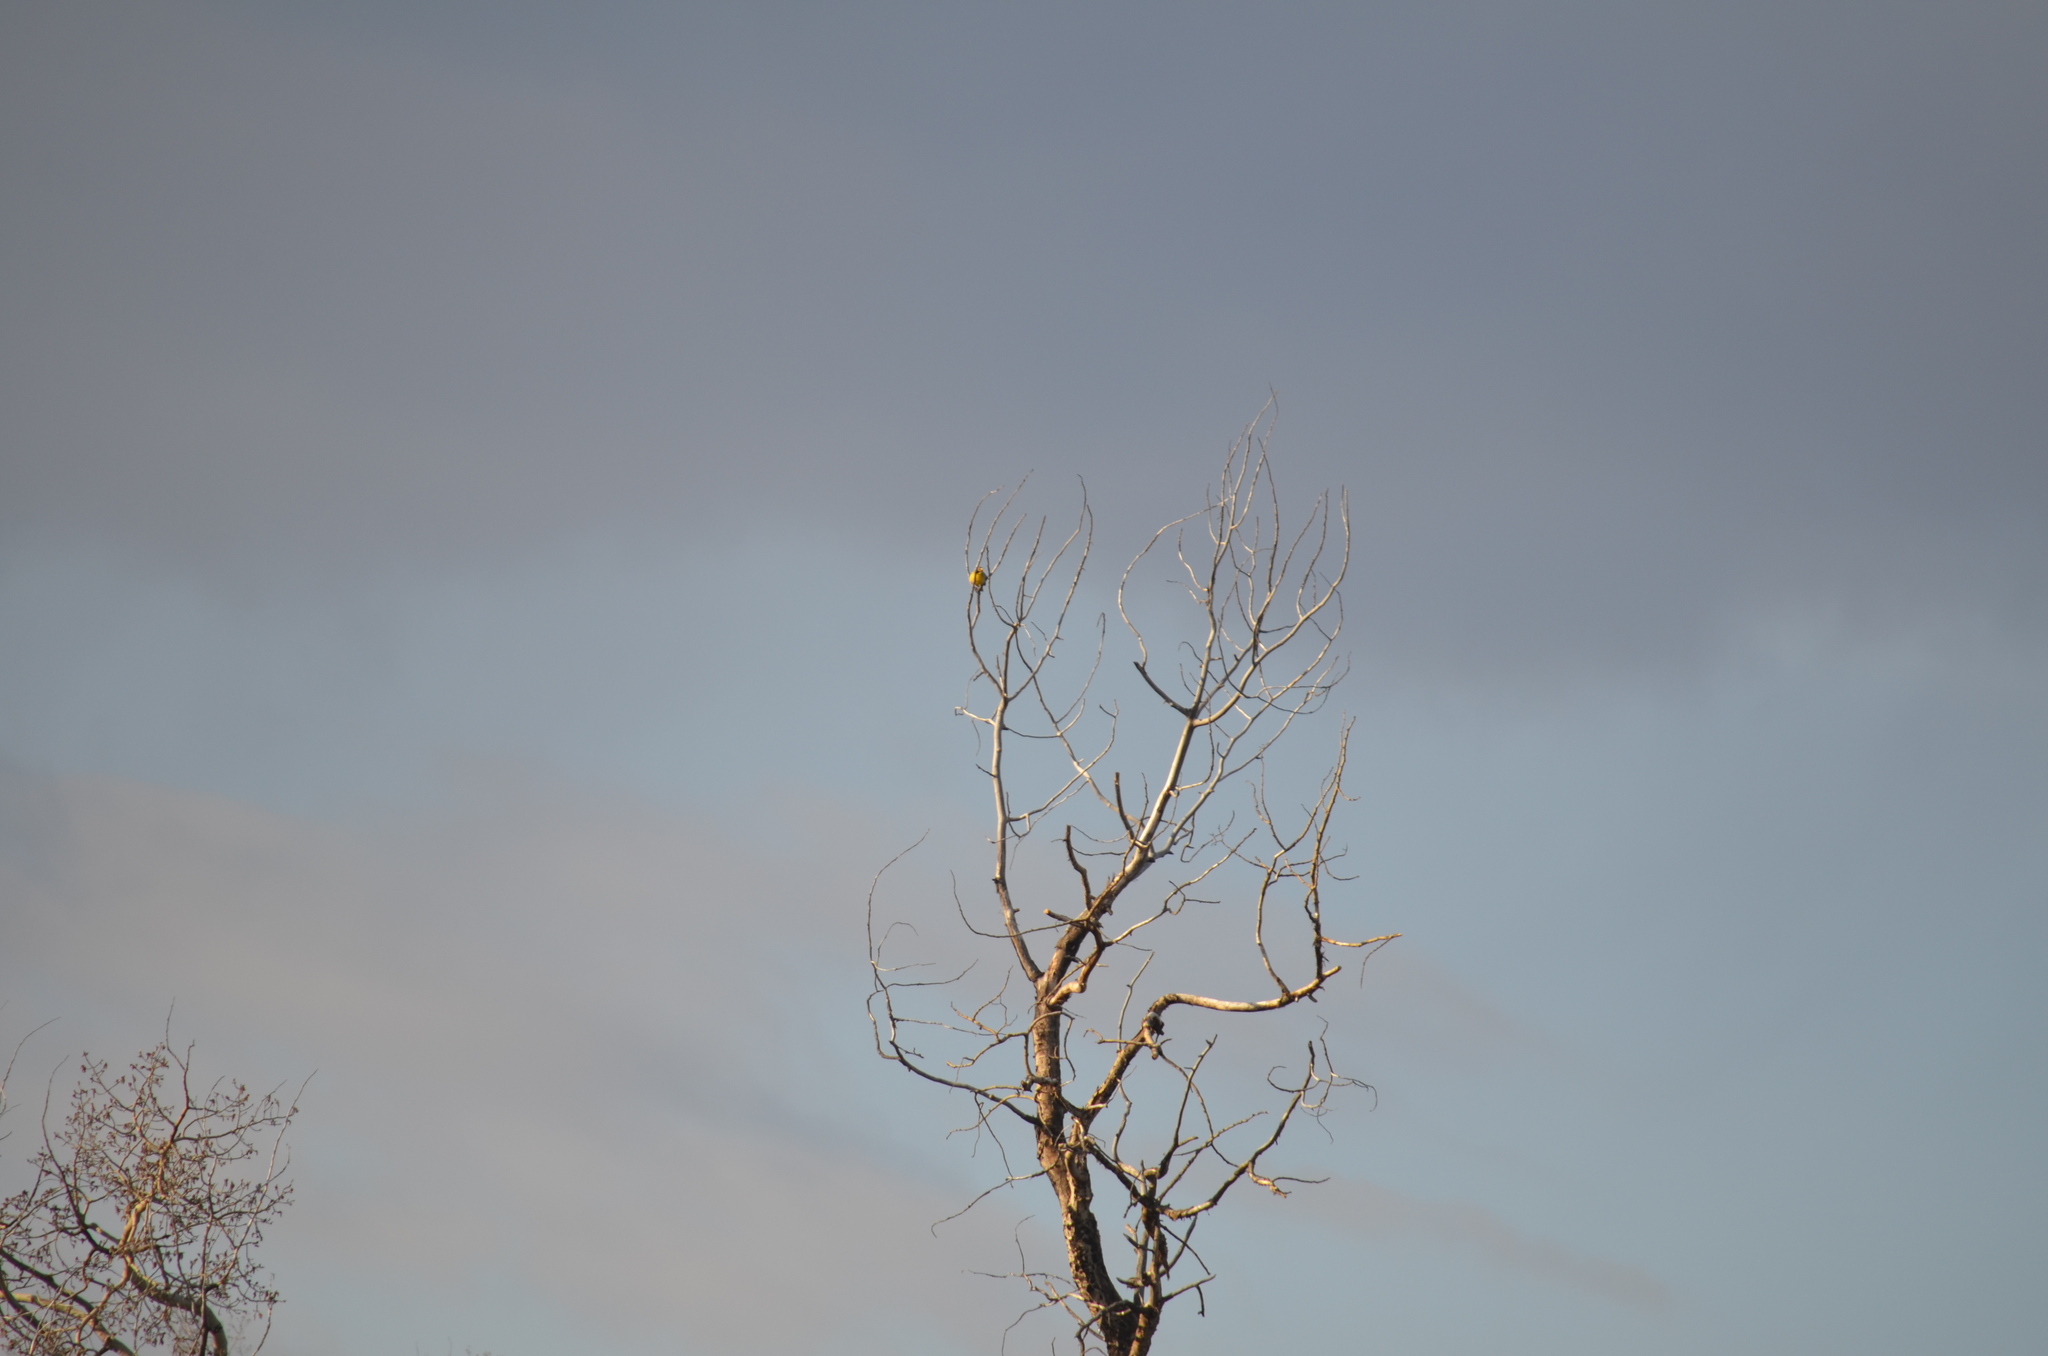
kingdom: Animalia
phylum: Chordata
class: Aves
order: Passeriformes
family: Icteridae
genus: Sturnella
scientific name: Sturnella neglecta
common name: Western meadowlark
